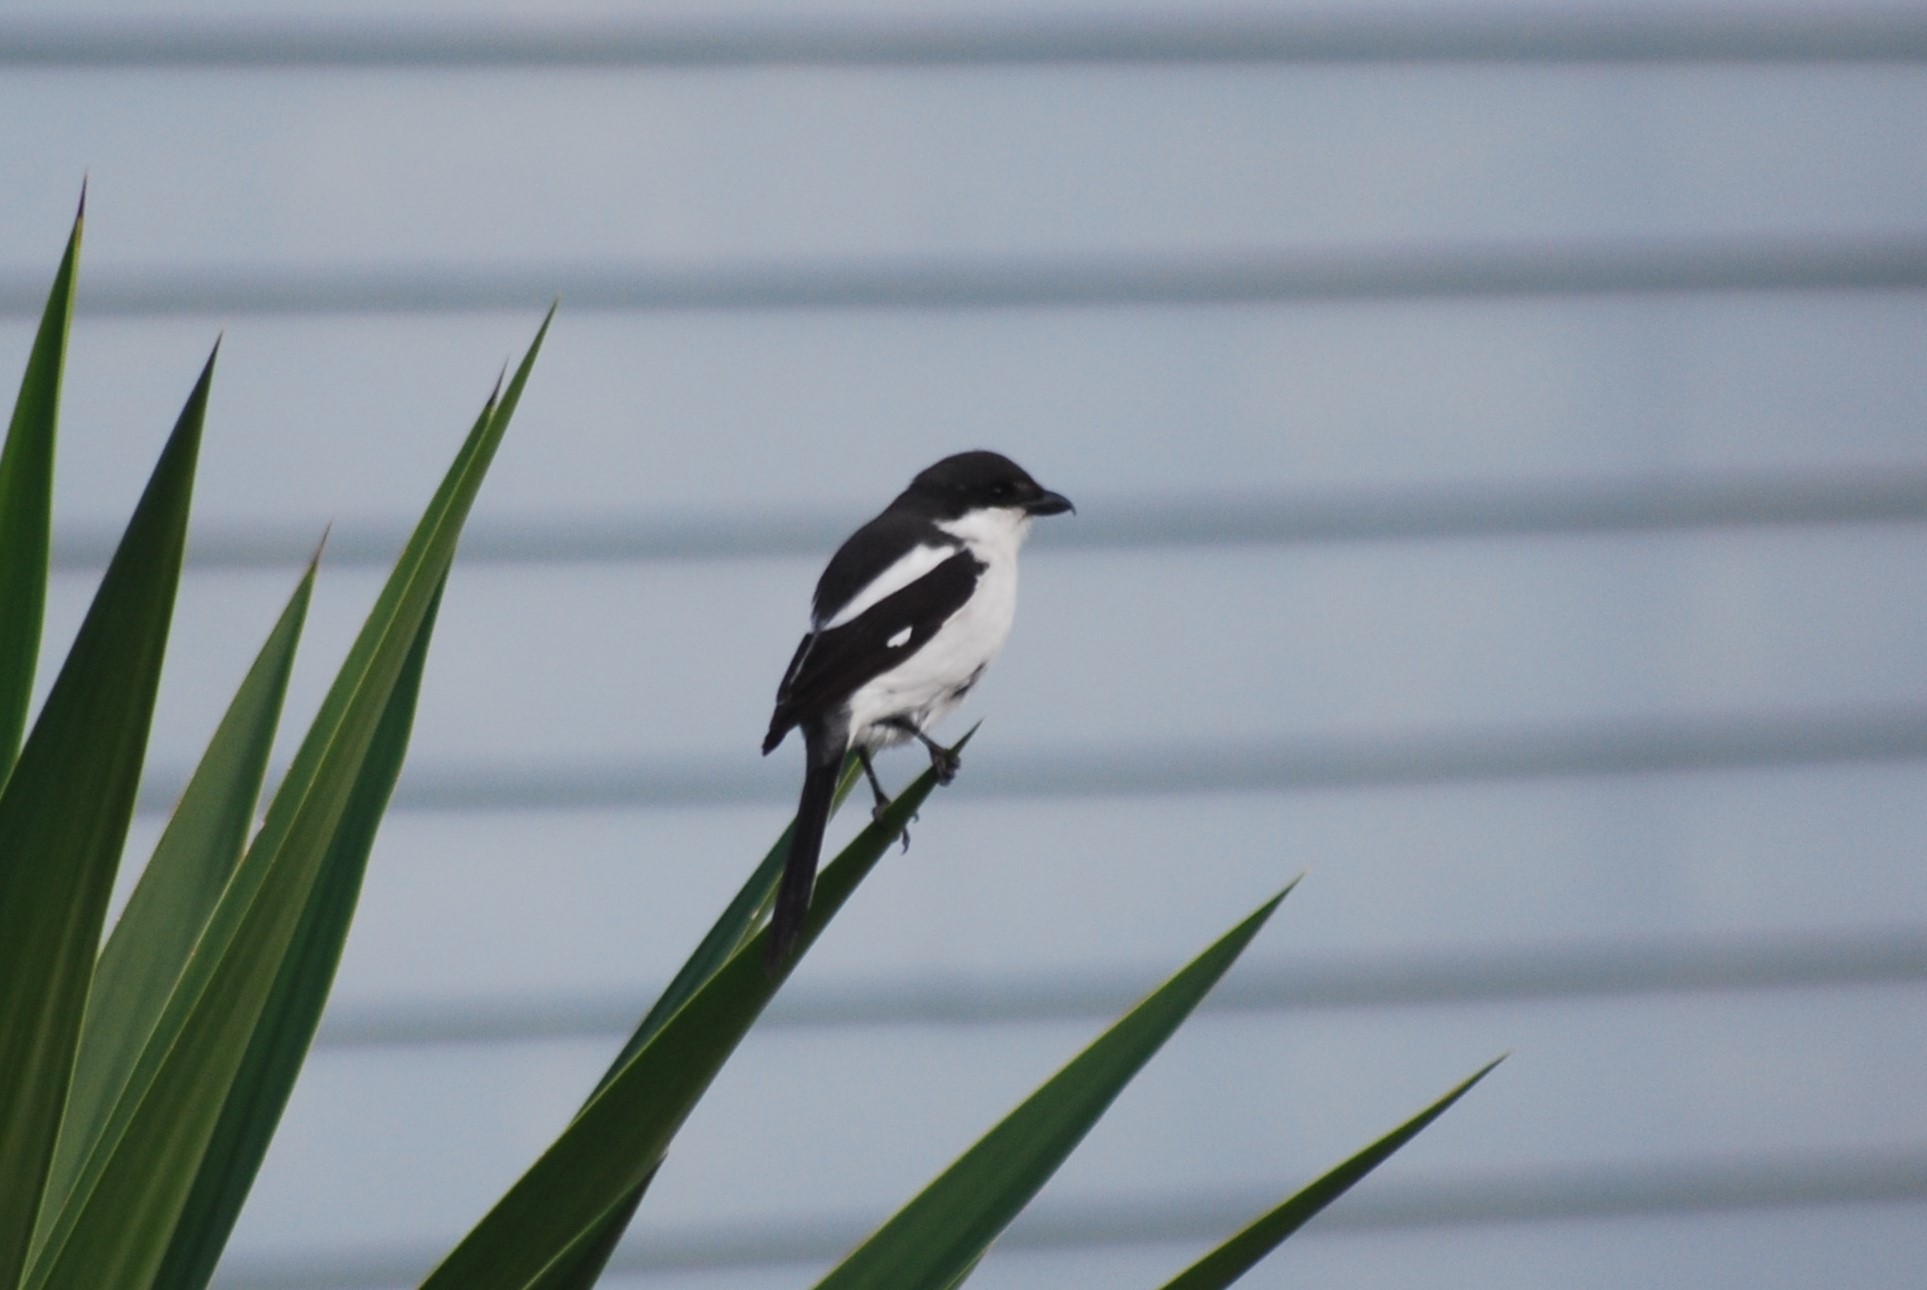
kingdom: Animalia
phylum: Chordata
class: Aves
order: Passeriformes
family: Laniidae
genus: Lanius
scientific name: Lanius collaris
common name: Southern fiscal
